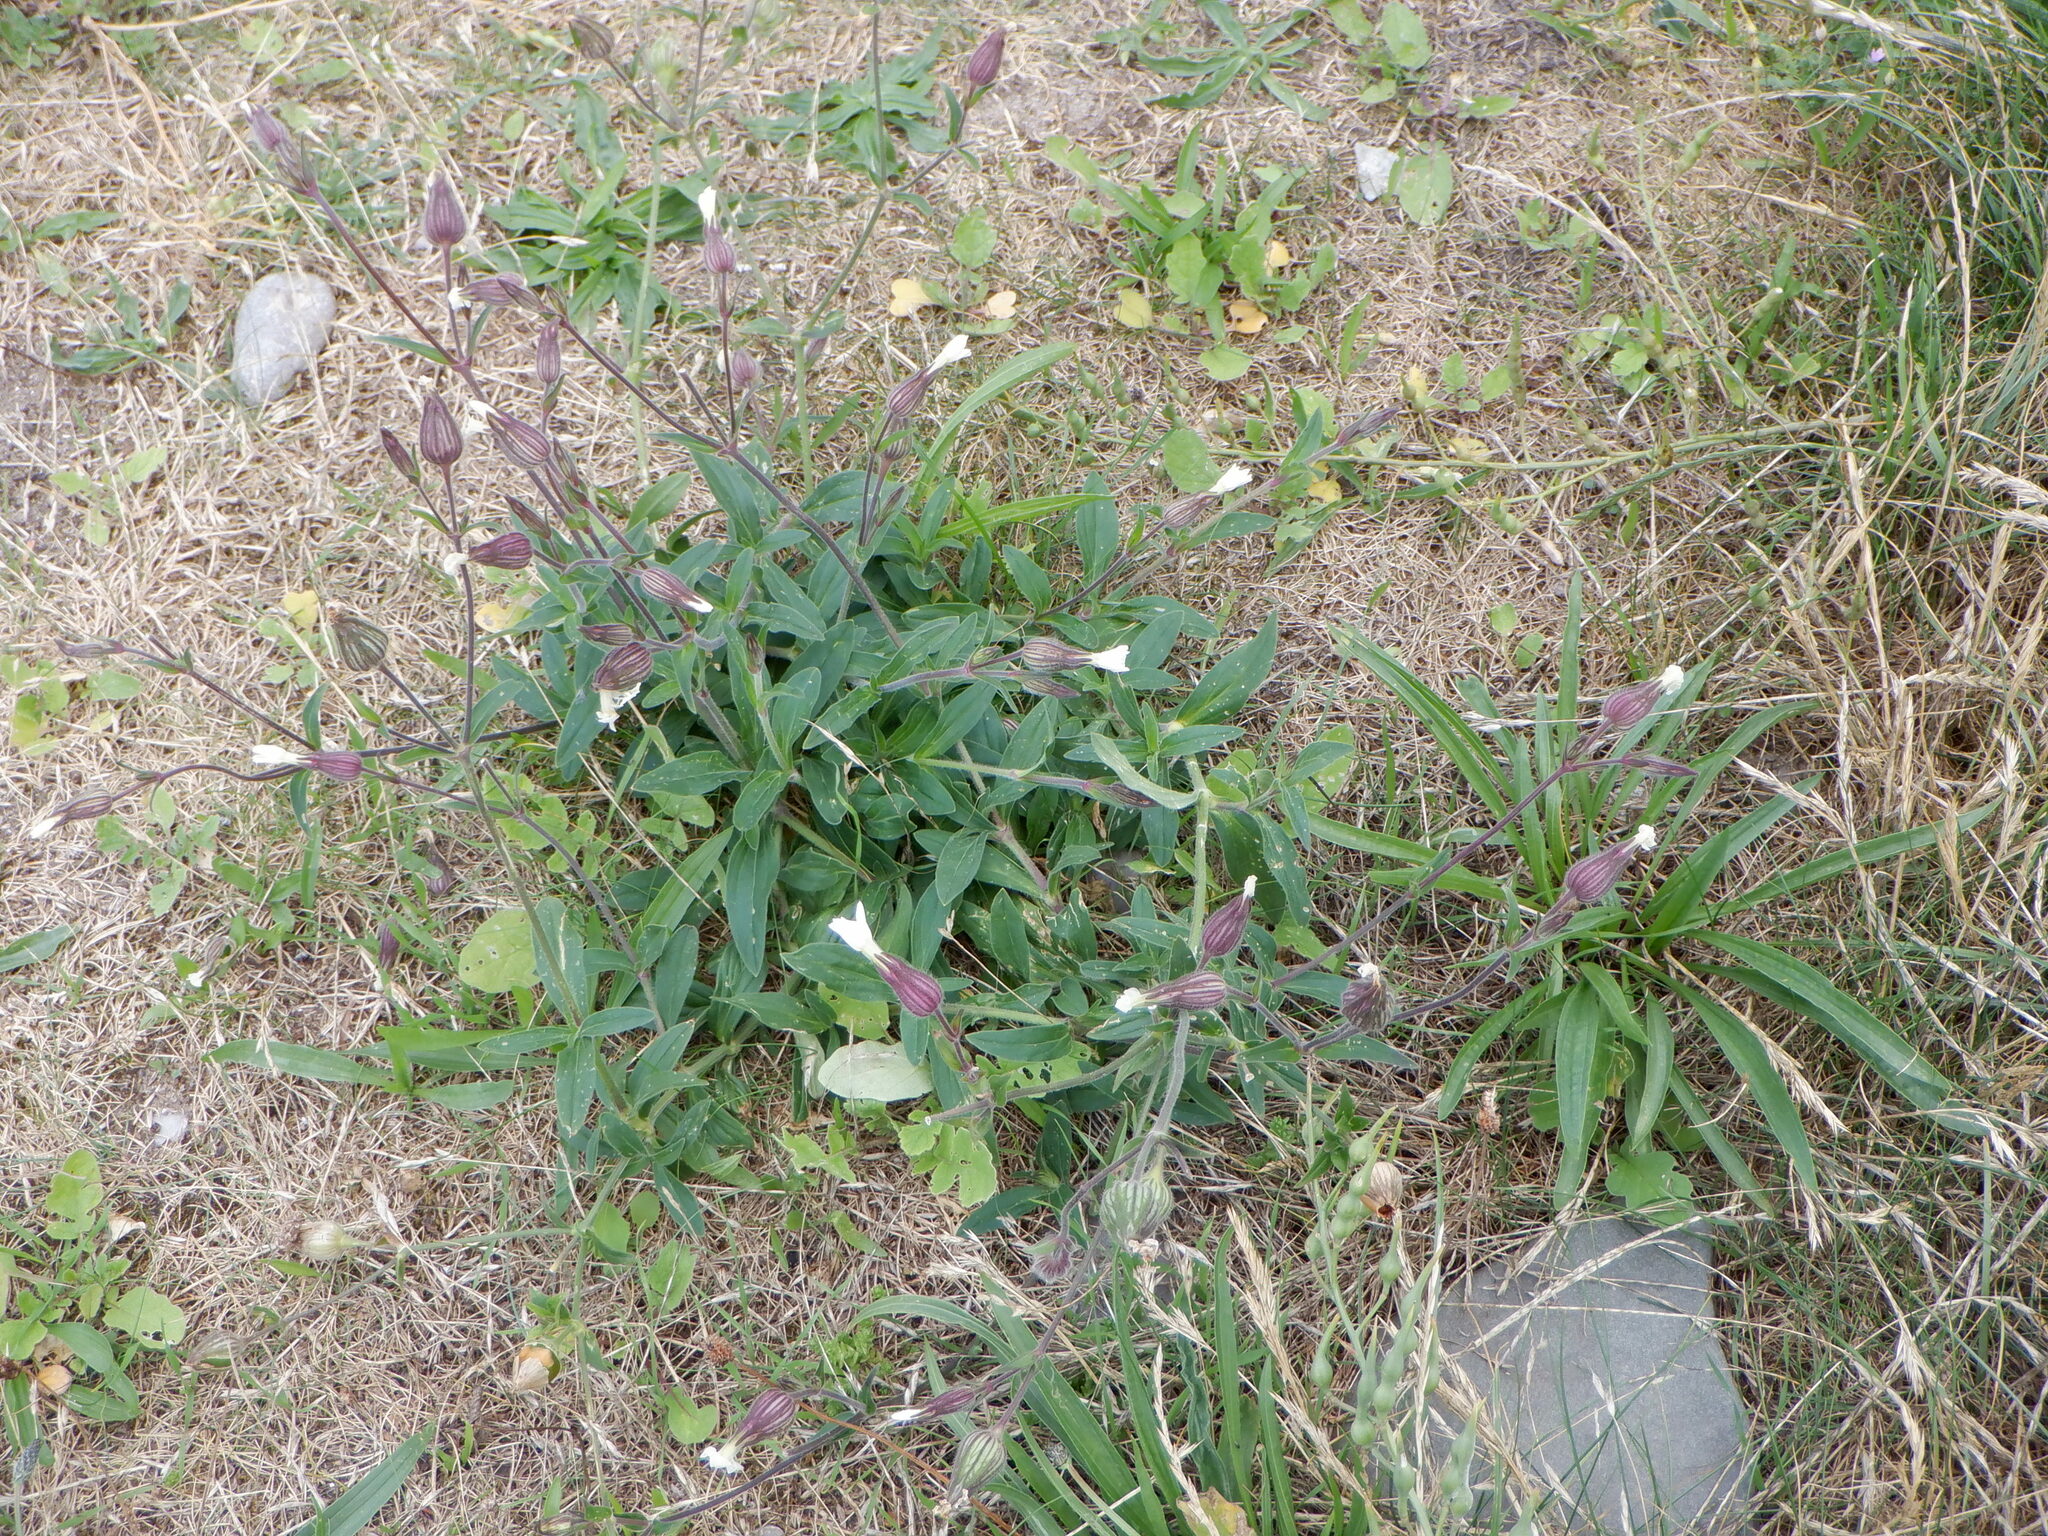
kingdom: Plantae
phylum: Tracheophyta
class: Magnoliopsida
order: Caryophyllales
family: Caryophyllaceae
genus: Silene
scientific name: Silene latifolia
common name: White campion
